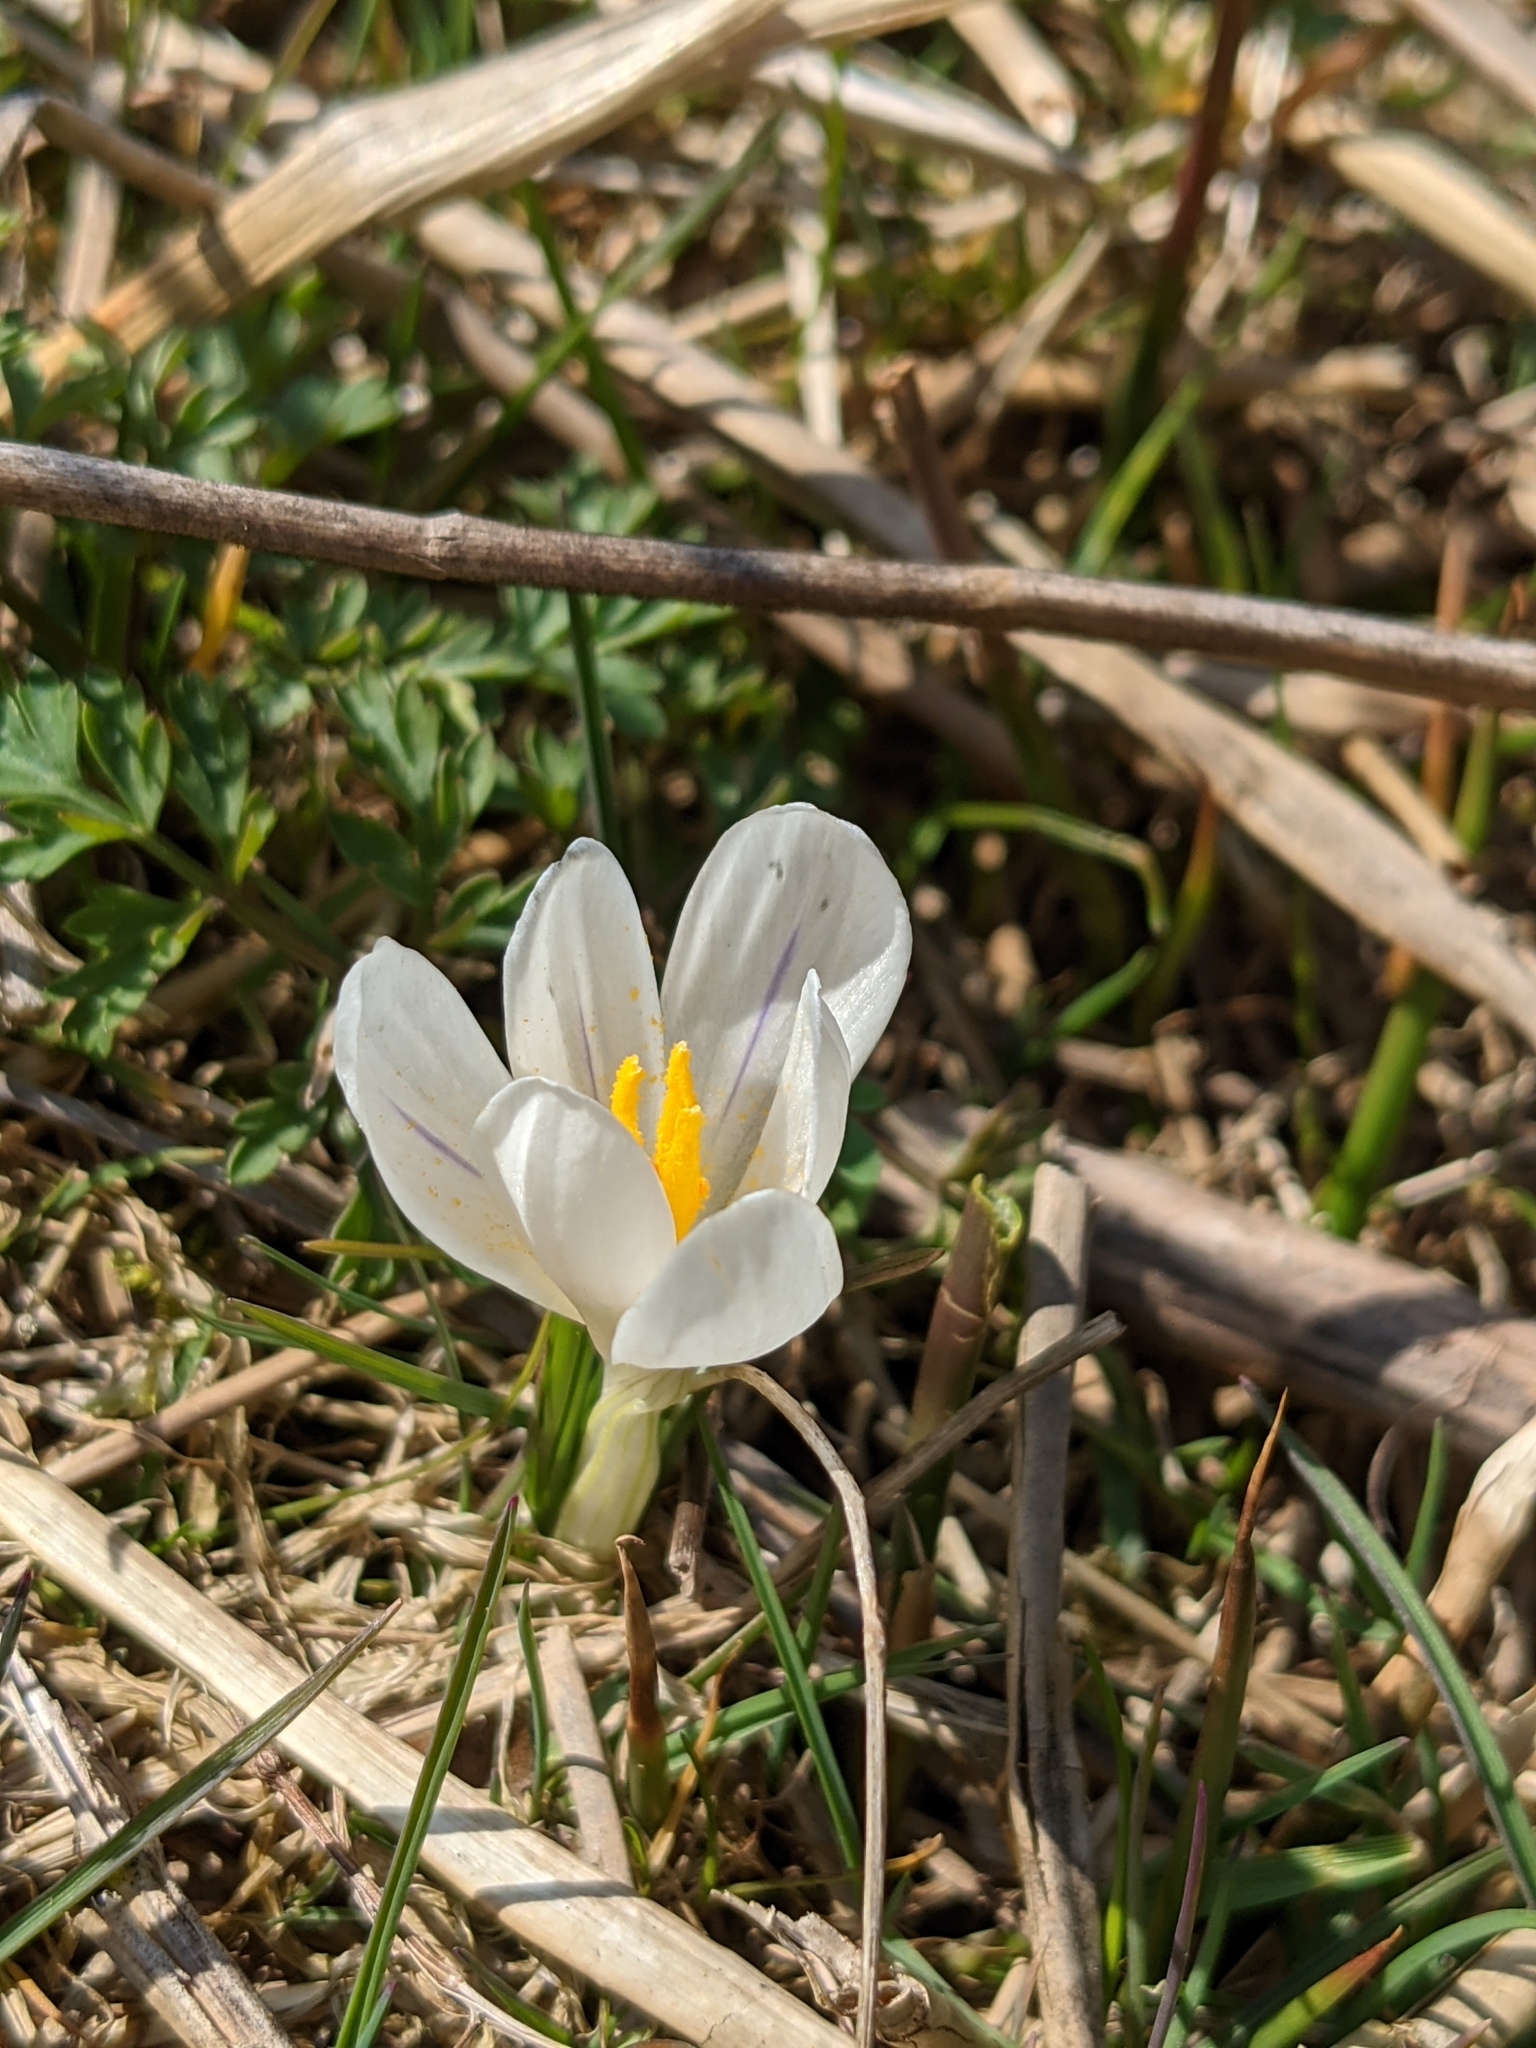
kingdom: Plantae
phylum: Tracheophyta
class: Liliopsida
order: Asparagales
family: Iridaceae
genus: Crocus
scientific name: Crocus vernus
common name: Spring crocus
